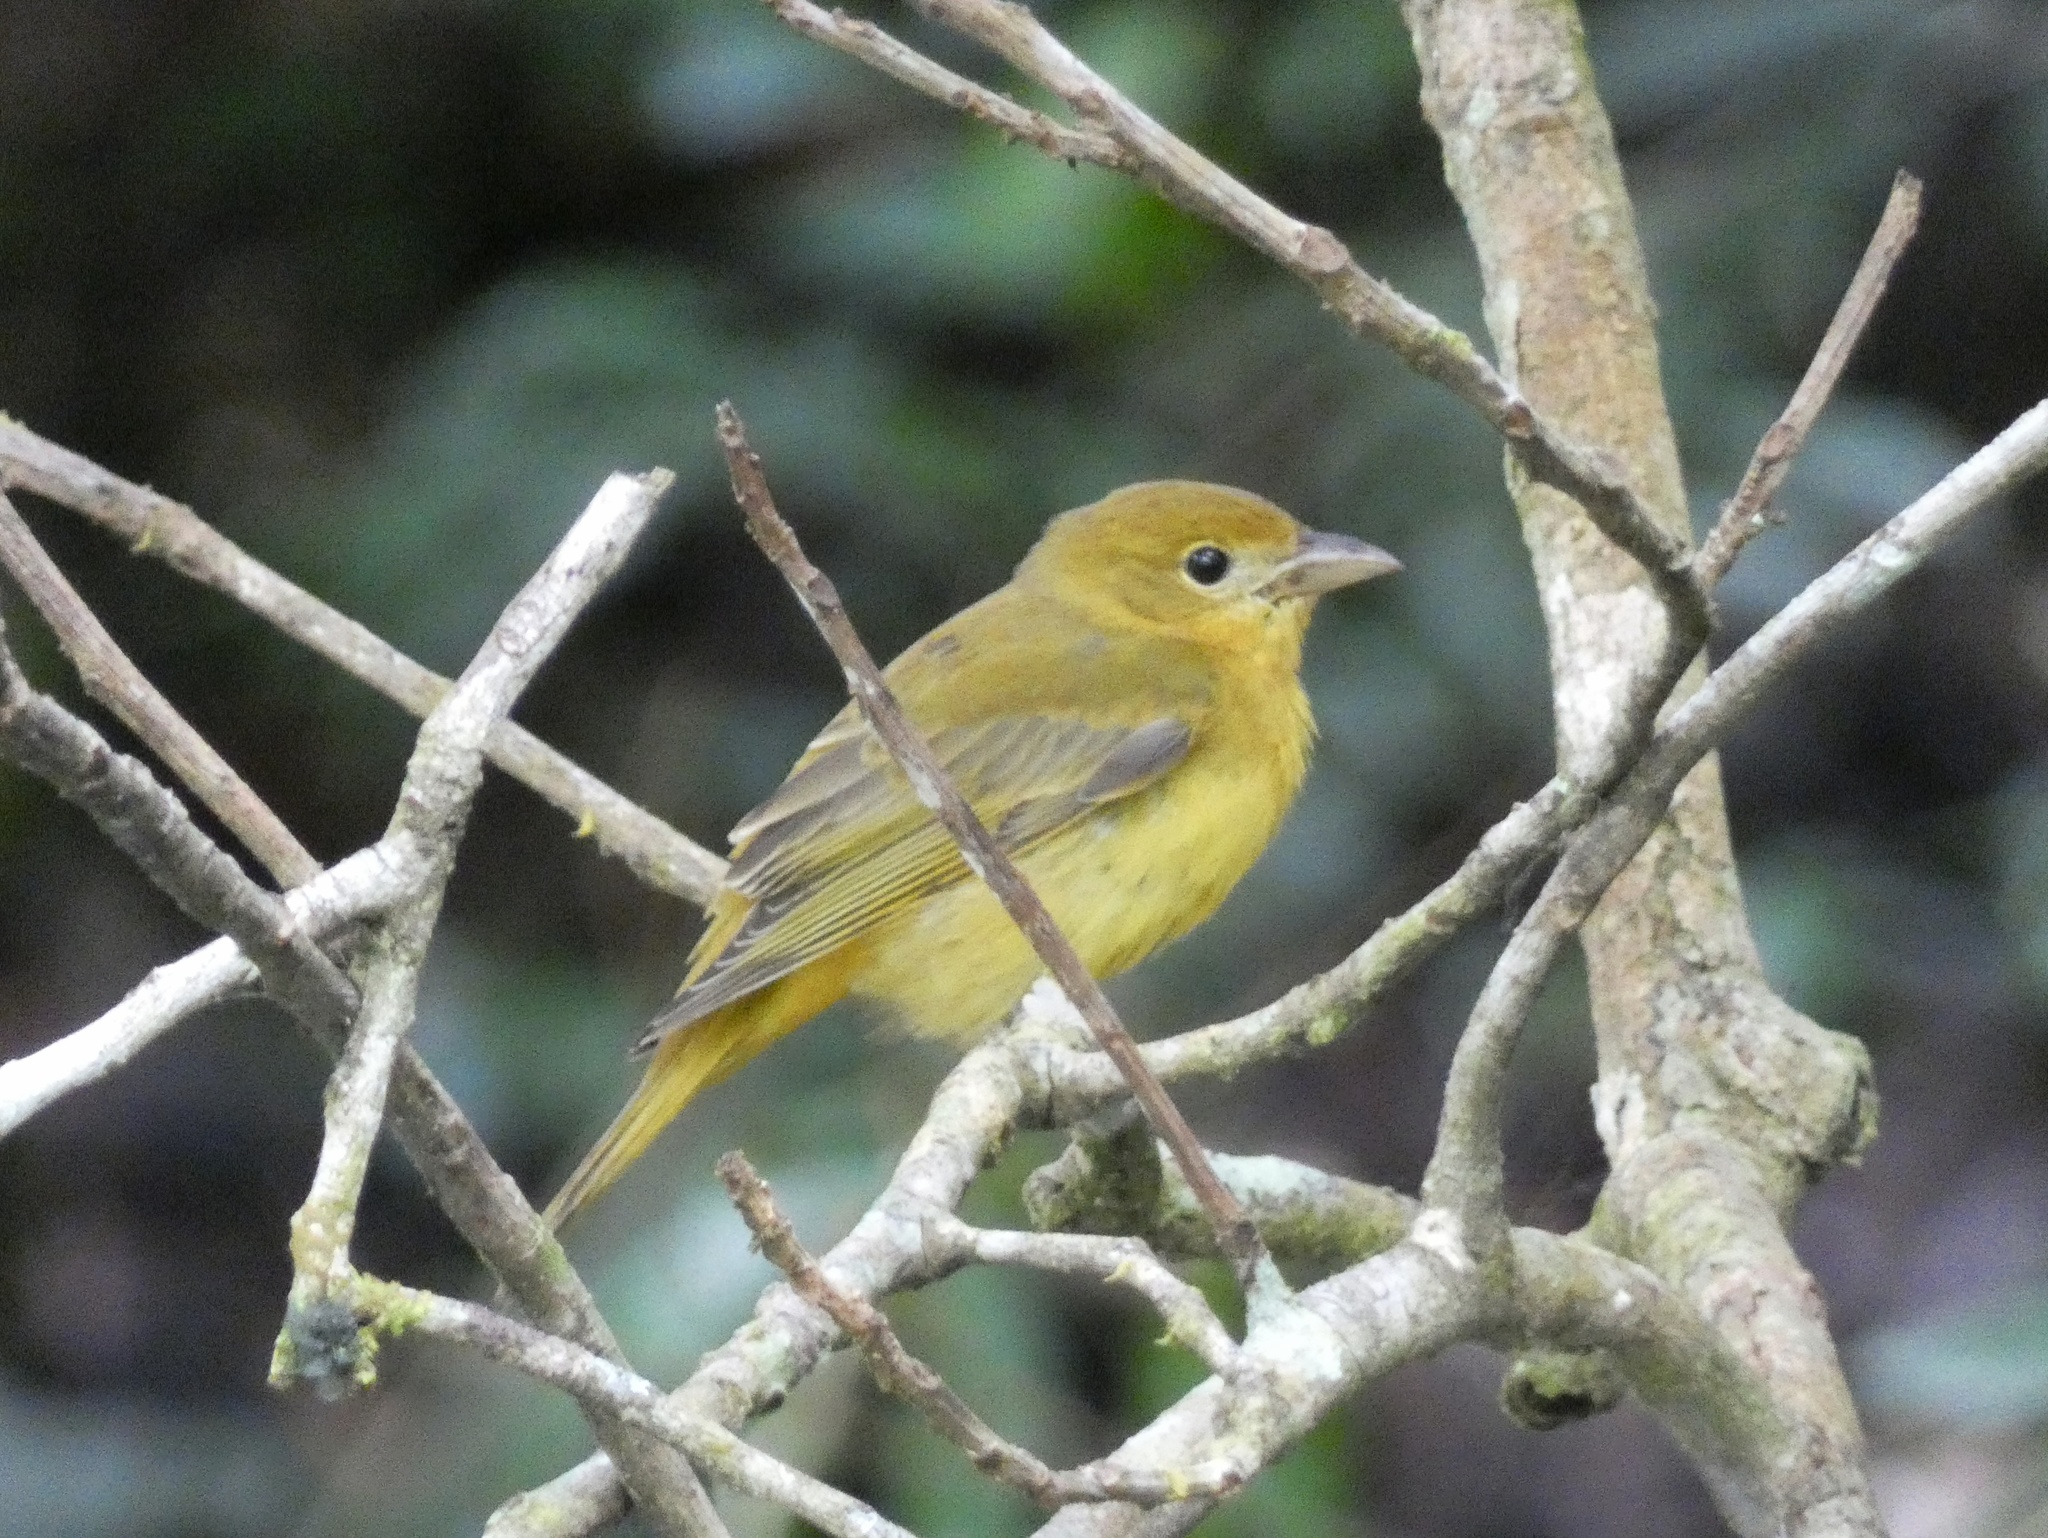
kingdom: Animalia
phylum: Chordata
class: Aves
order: Passeriformes
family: Cardinalidae
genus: Piranga
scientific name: Piranga rubra
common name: Summer tanager
